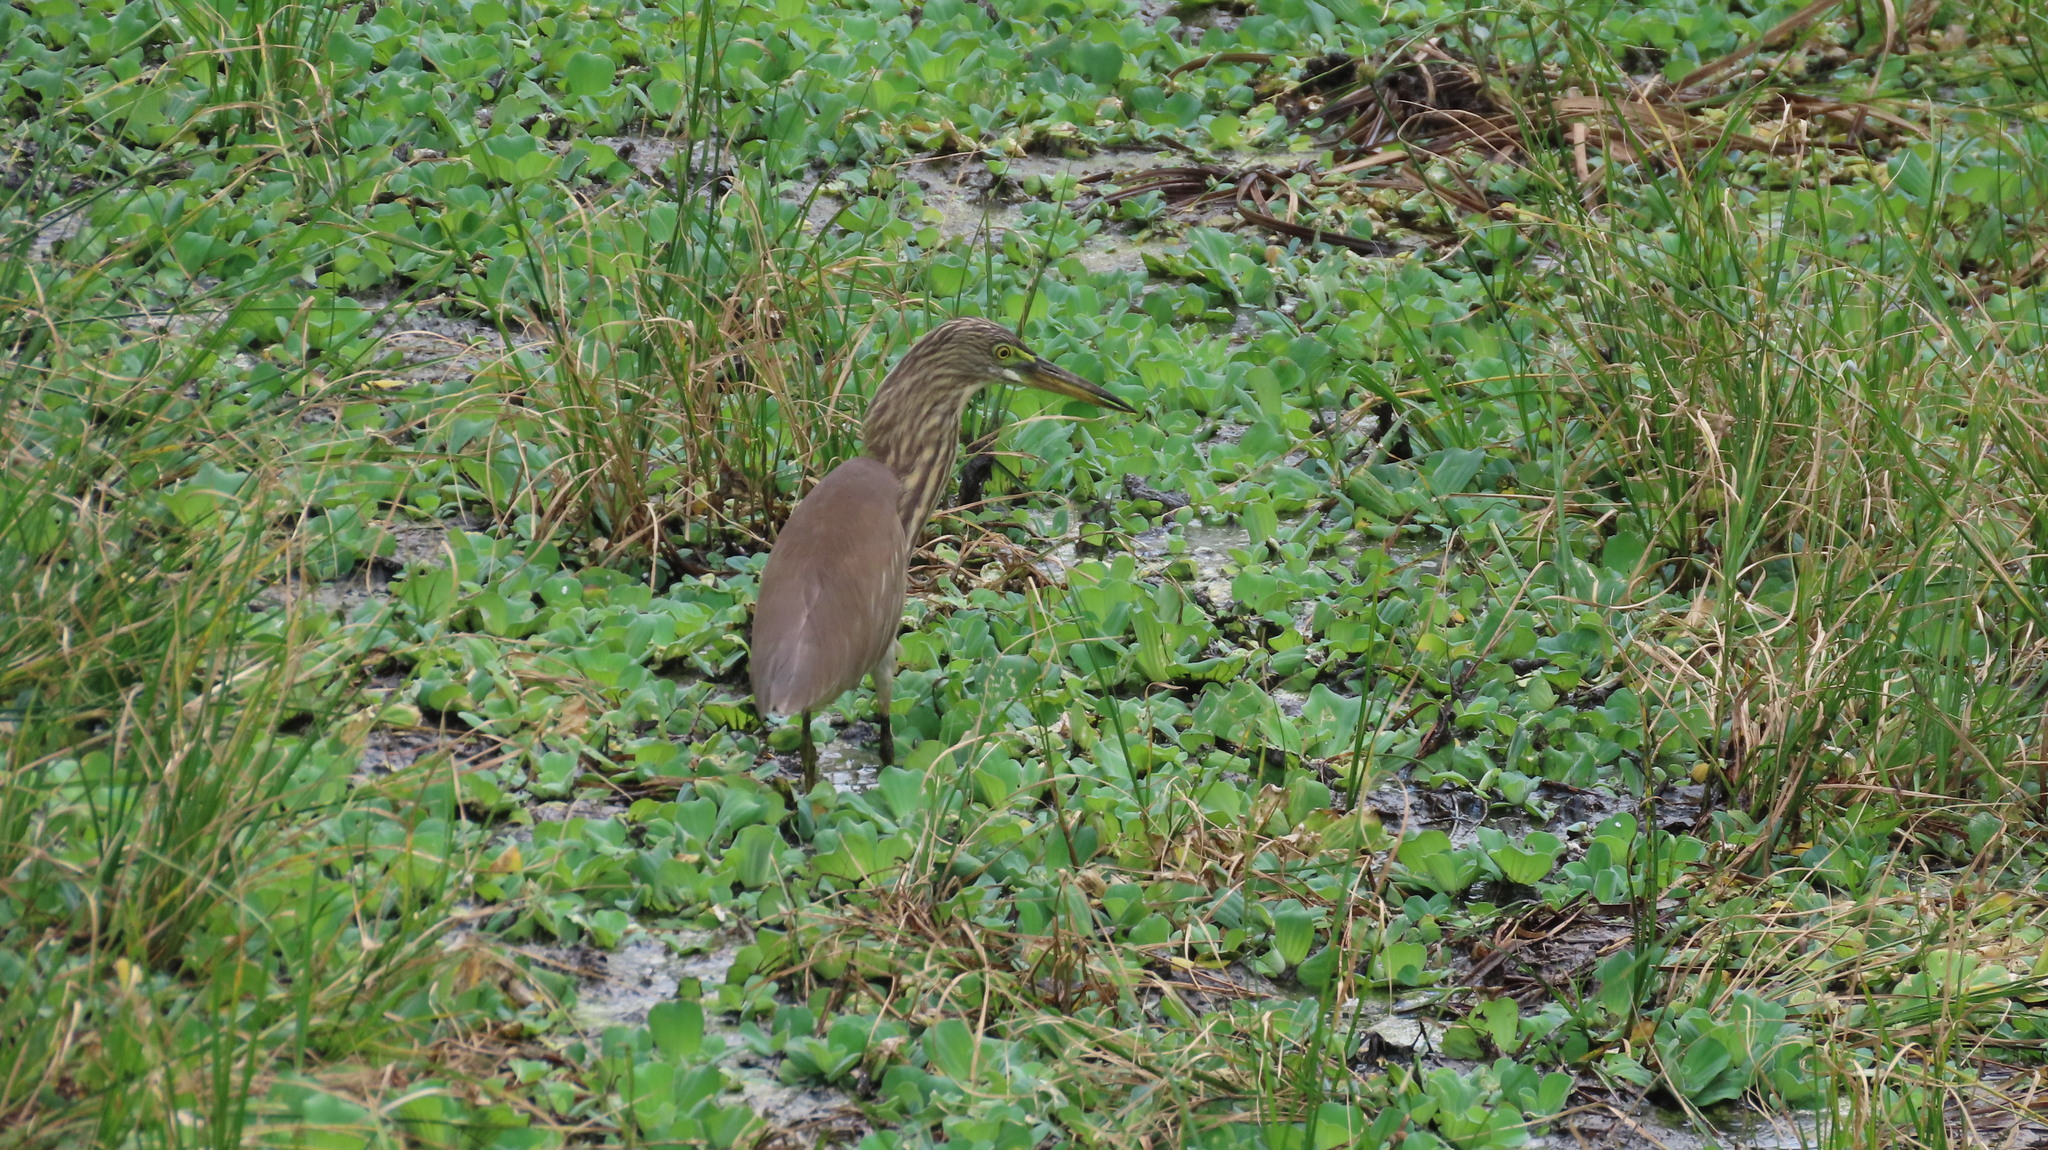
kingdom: Animalia
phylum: Chordata
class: Aves
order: Pelecaniformes
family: Ardeidae
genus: Ardeola
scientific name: Ardeola grayii
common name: Indian pond heron
